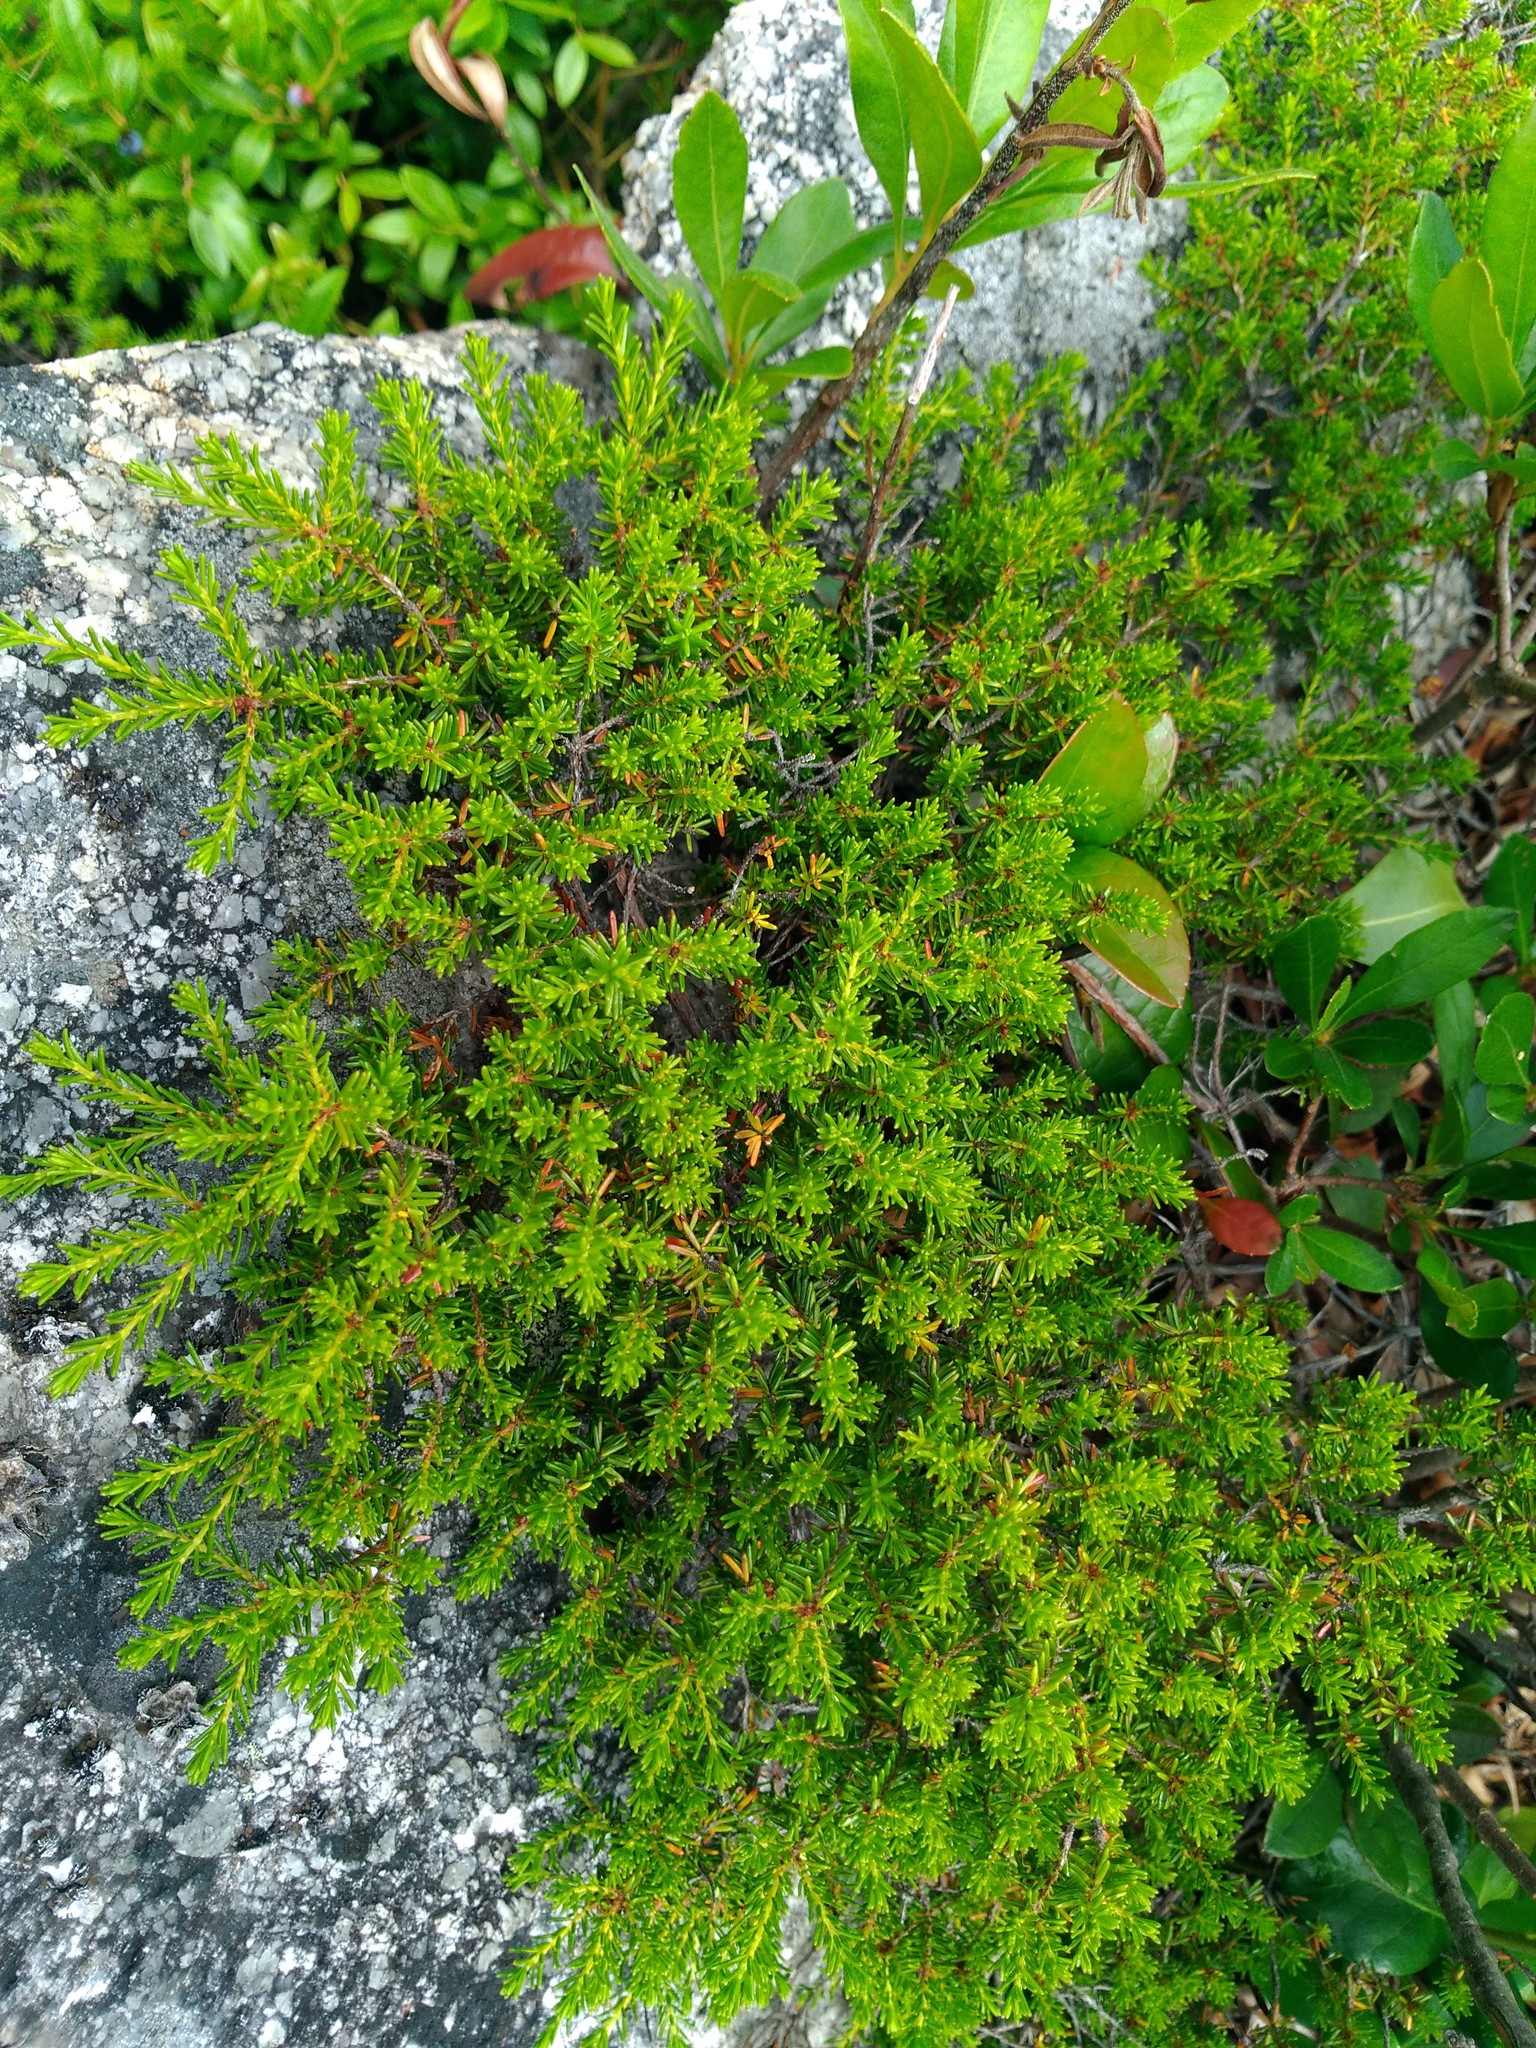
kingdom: Plantae
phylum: Tracheophyta
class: Magnoliopsida
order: Ericales
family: Ericaceae
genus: Corema
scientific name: Corema conradii
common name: Broom-crowberry
